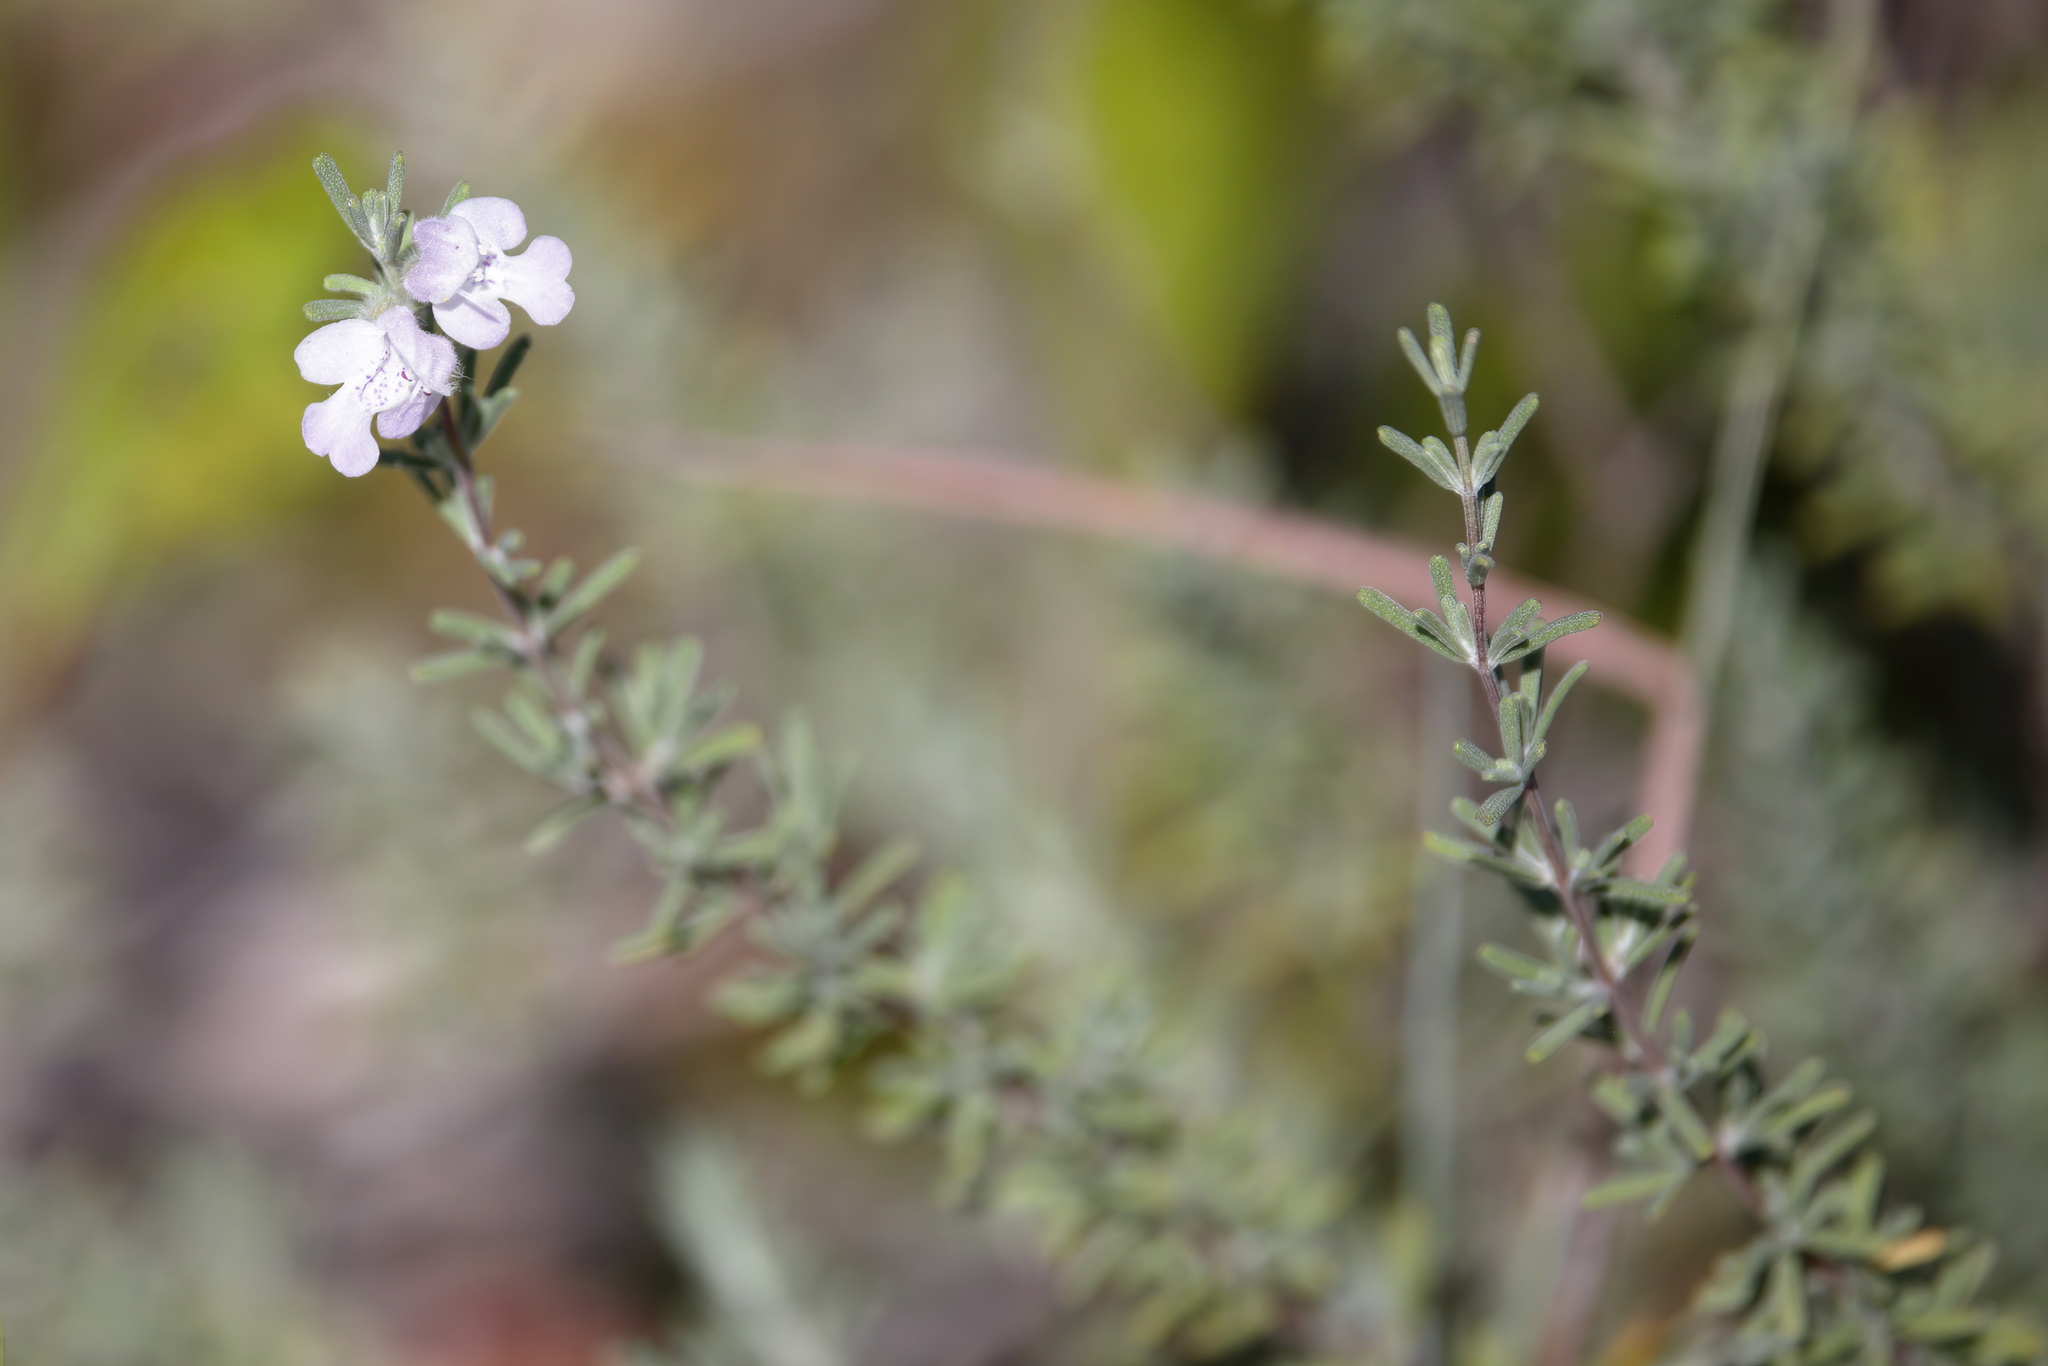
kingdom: Plantae
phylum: Tracheophyta
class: Magnoliopsida
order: Lamiales
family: Lamiaceae
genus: Conradina
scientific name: Conradina canescens
